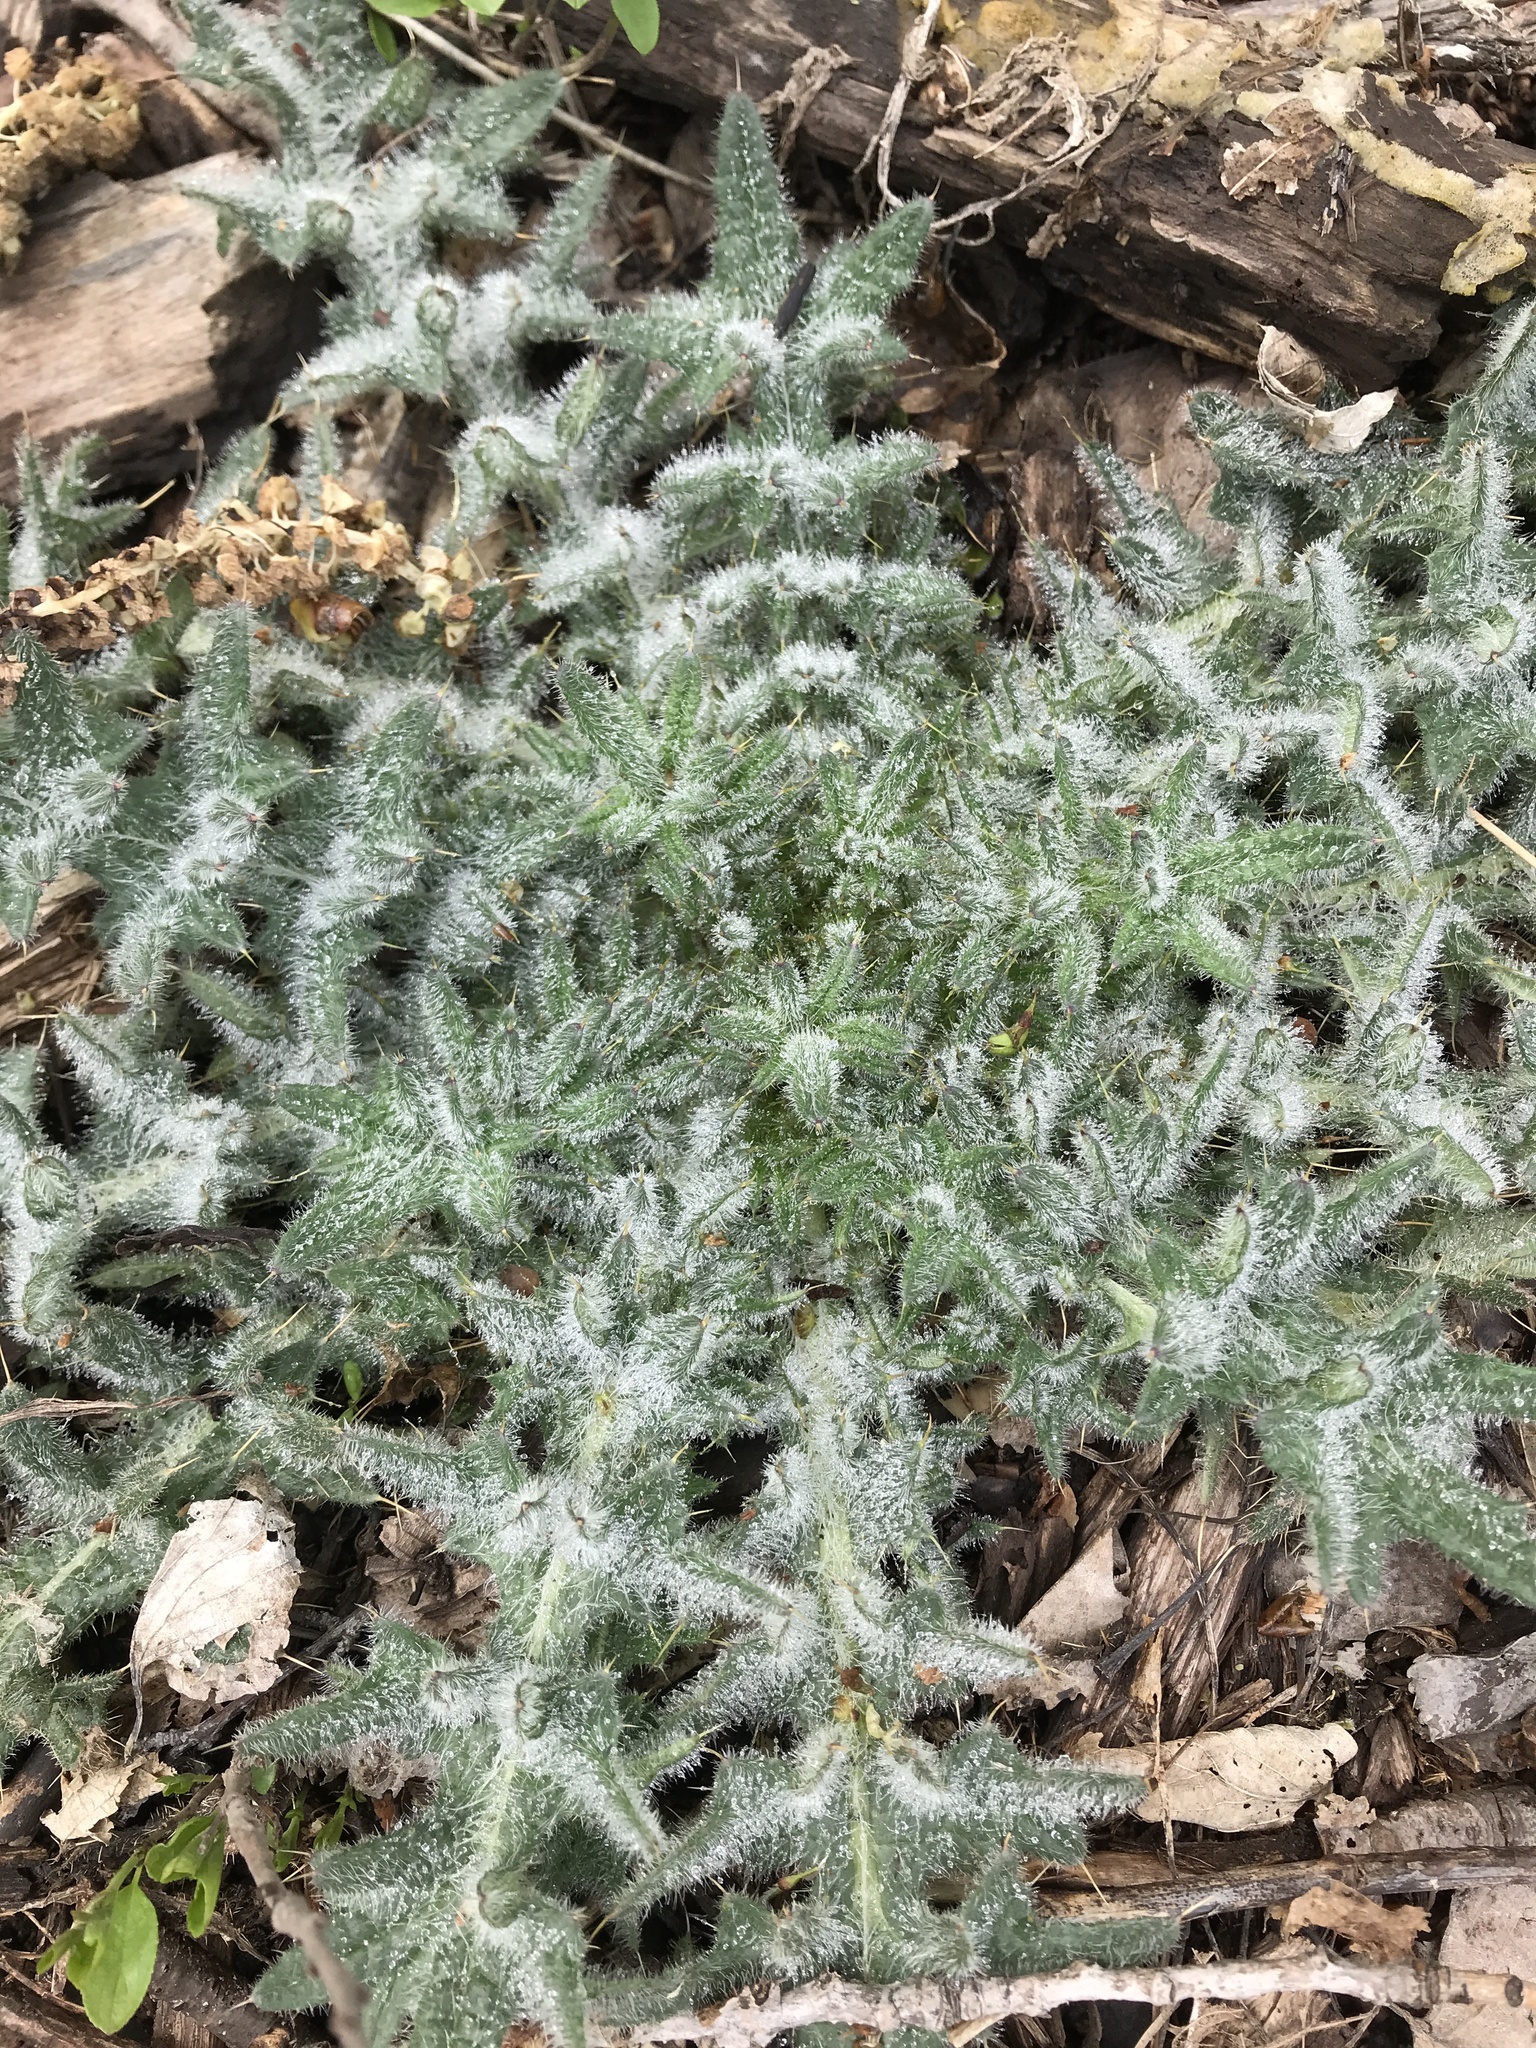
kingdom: Plantae
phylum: Tracheophyta
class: Magnoliopsida
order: Asterales
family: Asteraceae
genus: Cirsium
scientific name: Cirsium vulgare
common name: Bull thistle
